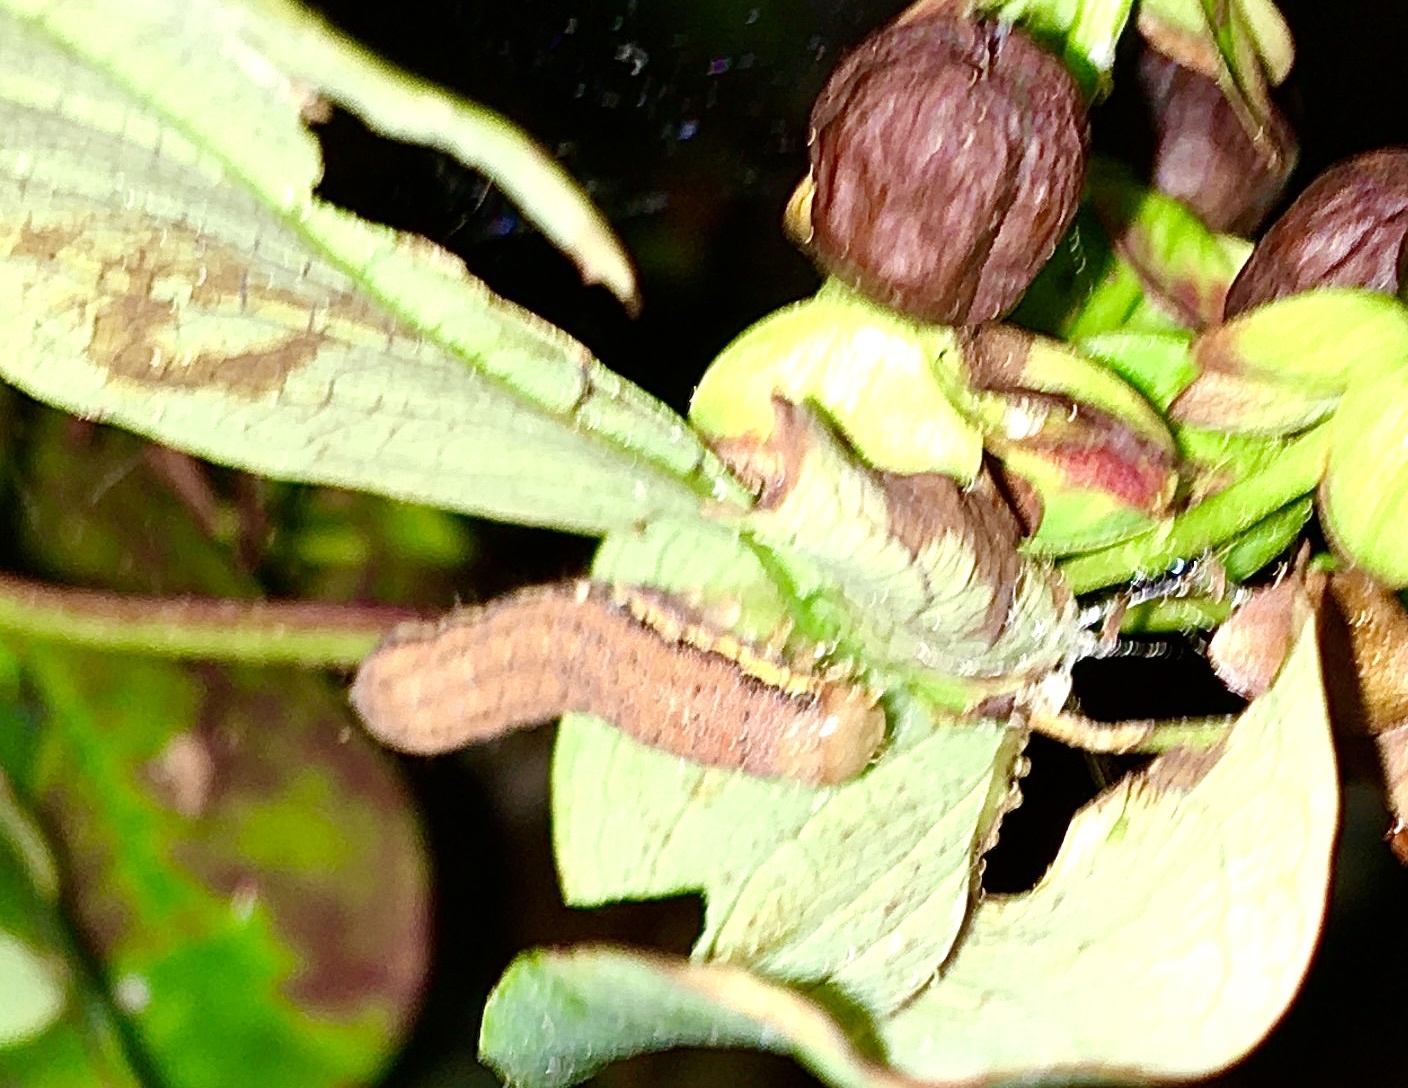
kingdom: Animalia
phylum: Arthropoda
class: Insecta
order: Lepidoptera
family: Noctuidae
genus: Lacanobia
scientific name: Lacanobia oleracea
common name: Bright-line brown-eye
